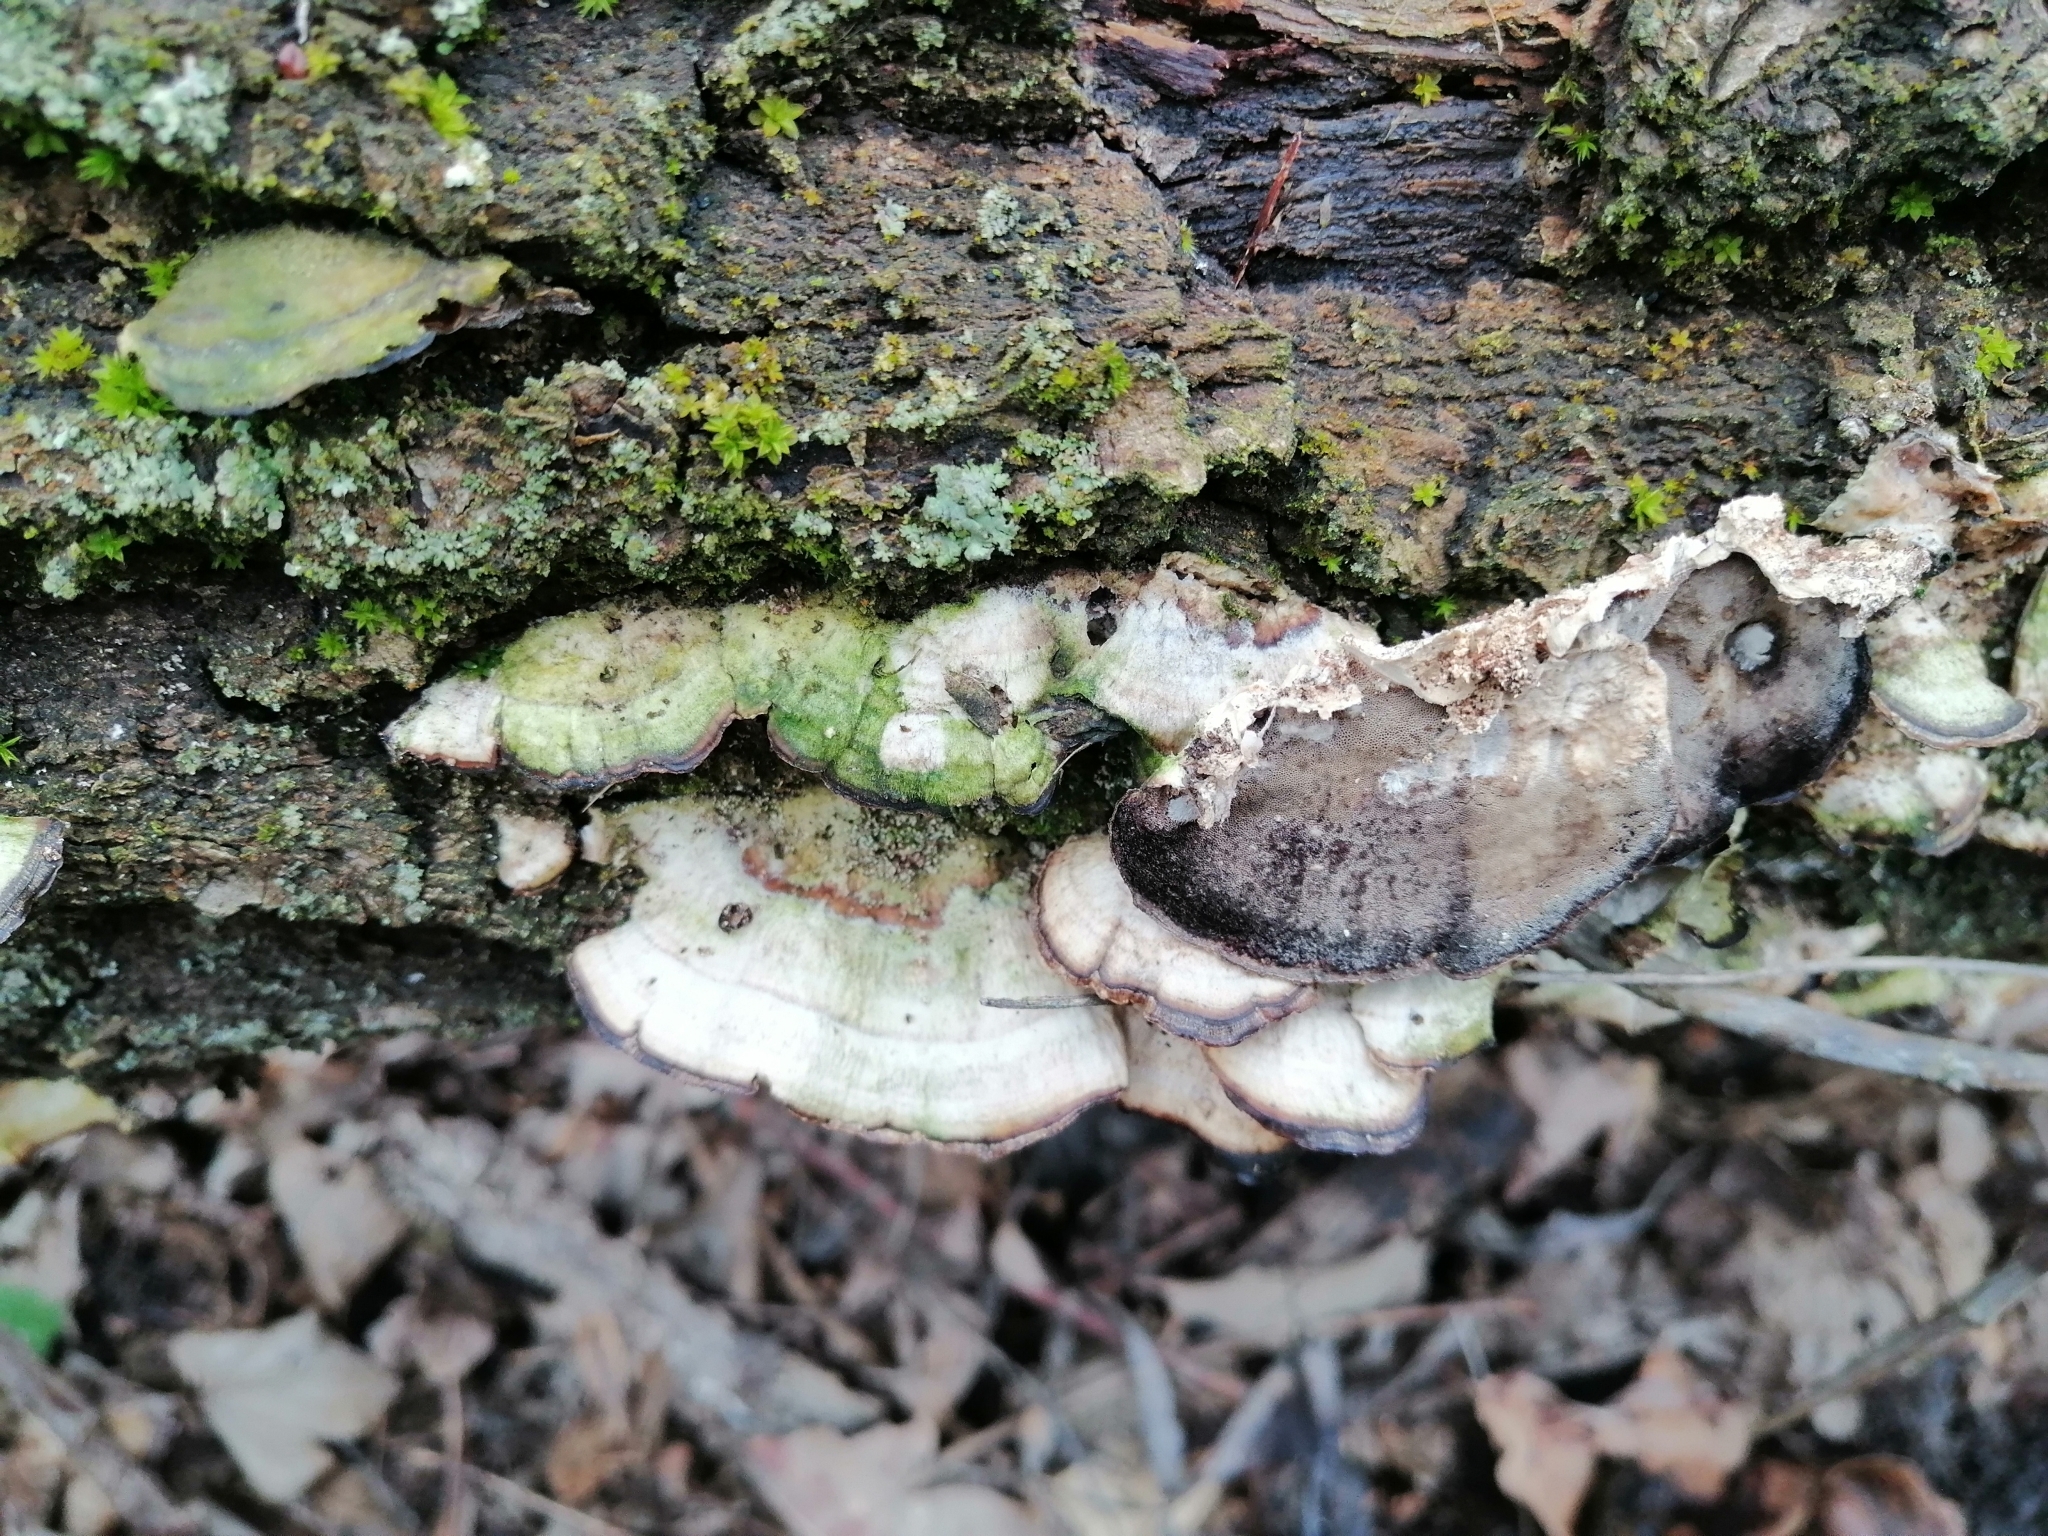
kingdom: Fungi
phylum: Basidiomycota
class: Agaricomycetes
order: Polyporales
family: Phanerochaetaceae
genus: Bjerkandera
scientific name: Bjerkandera adusta
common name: Smoky bracket
